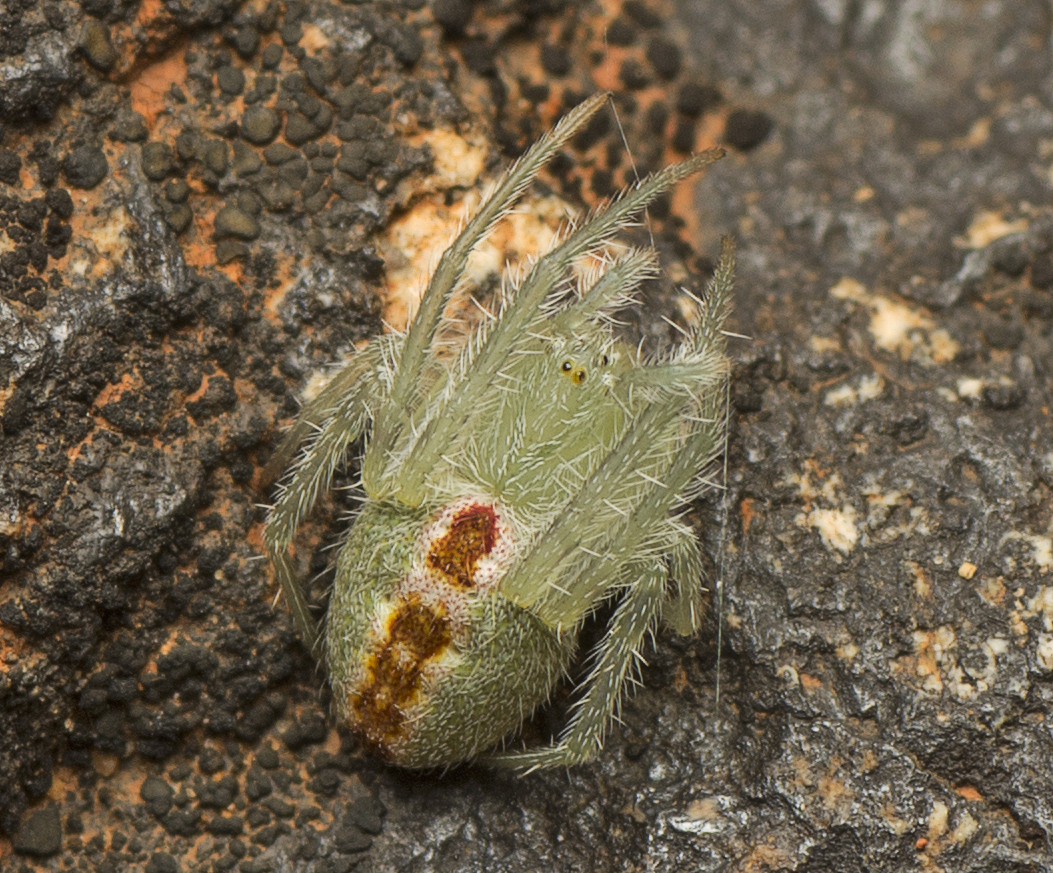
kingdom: Animalia
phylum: Arthropoda
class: Arachnida
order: Araneae
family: Araneidae
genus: Araneus
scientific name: Araneus circulissparsus
